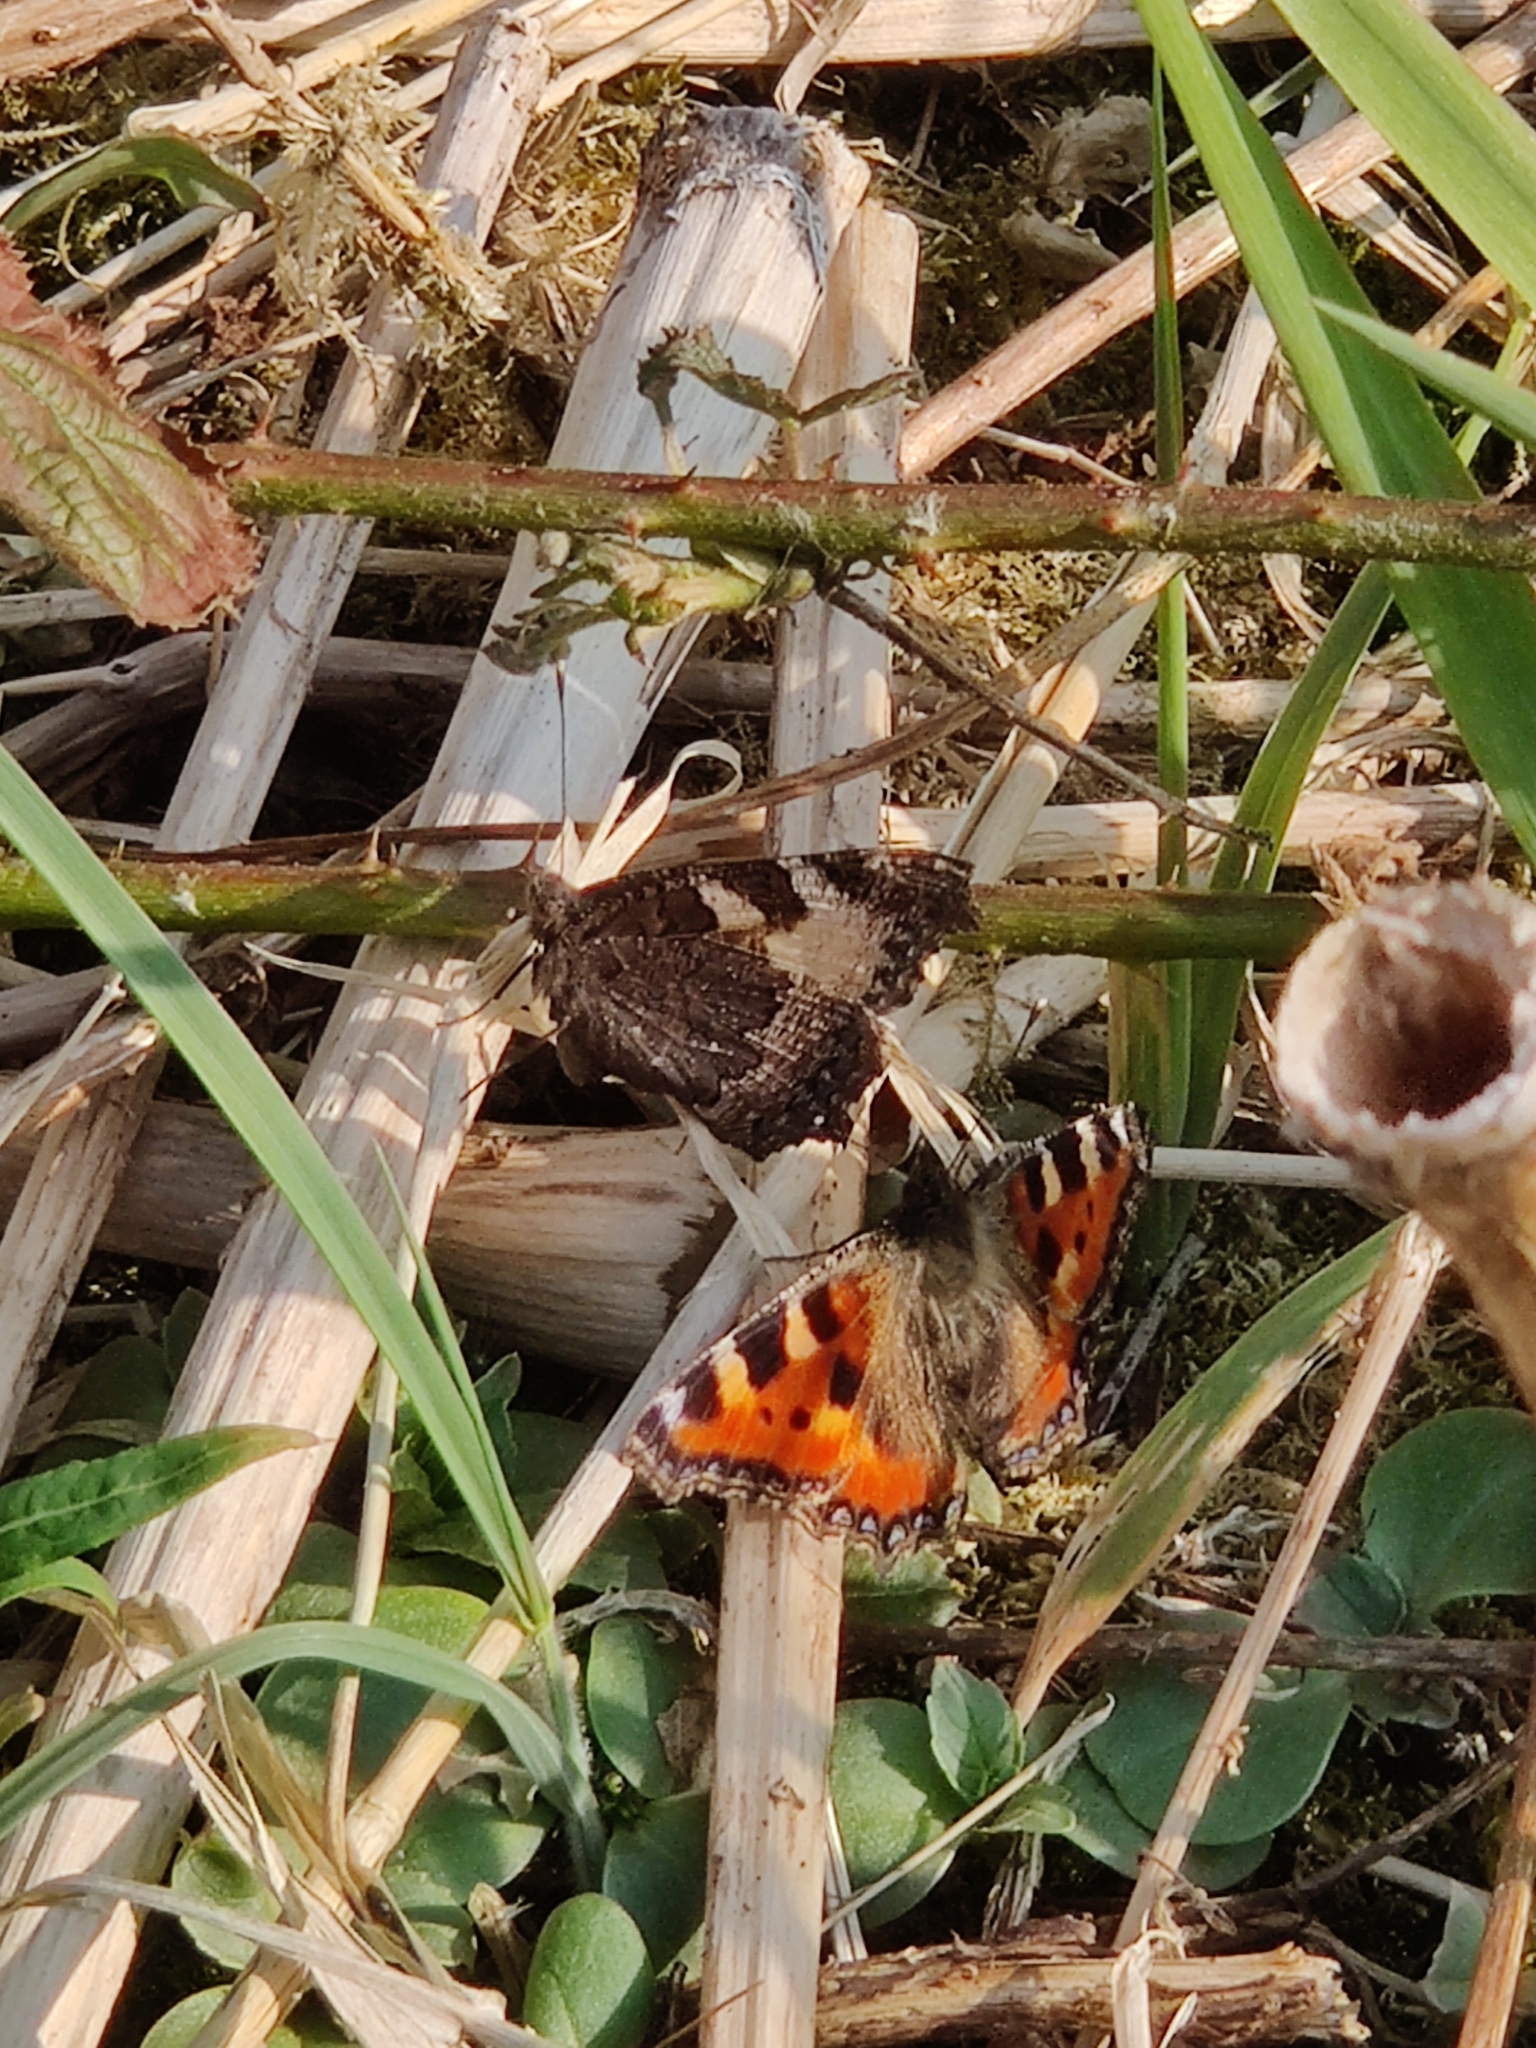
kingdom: Animalia
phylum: Arthropoda
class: Insecta
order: Lepidoptera
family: Nymphalidae
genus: Aglais
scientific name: Aglais urticae
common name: Small tortoiseshell
